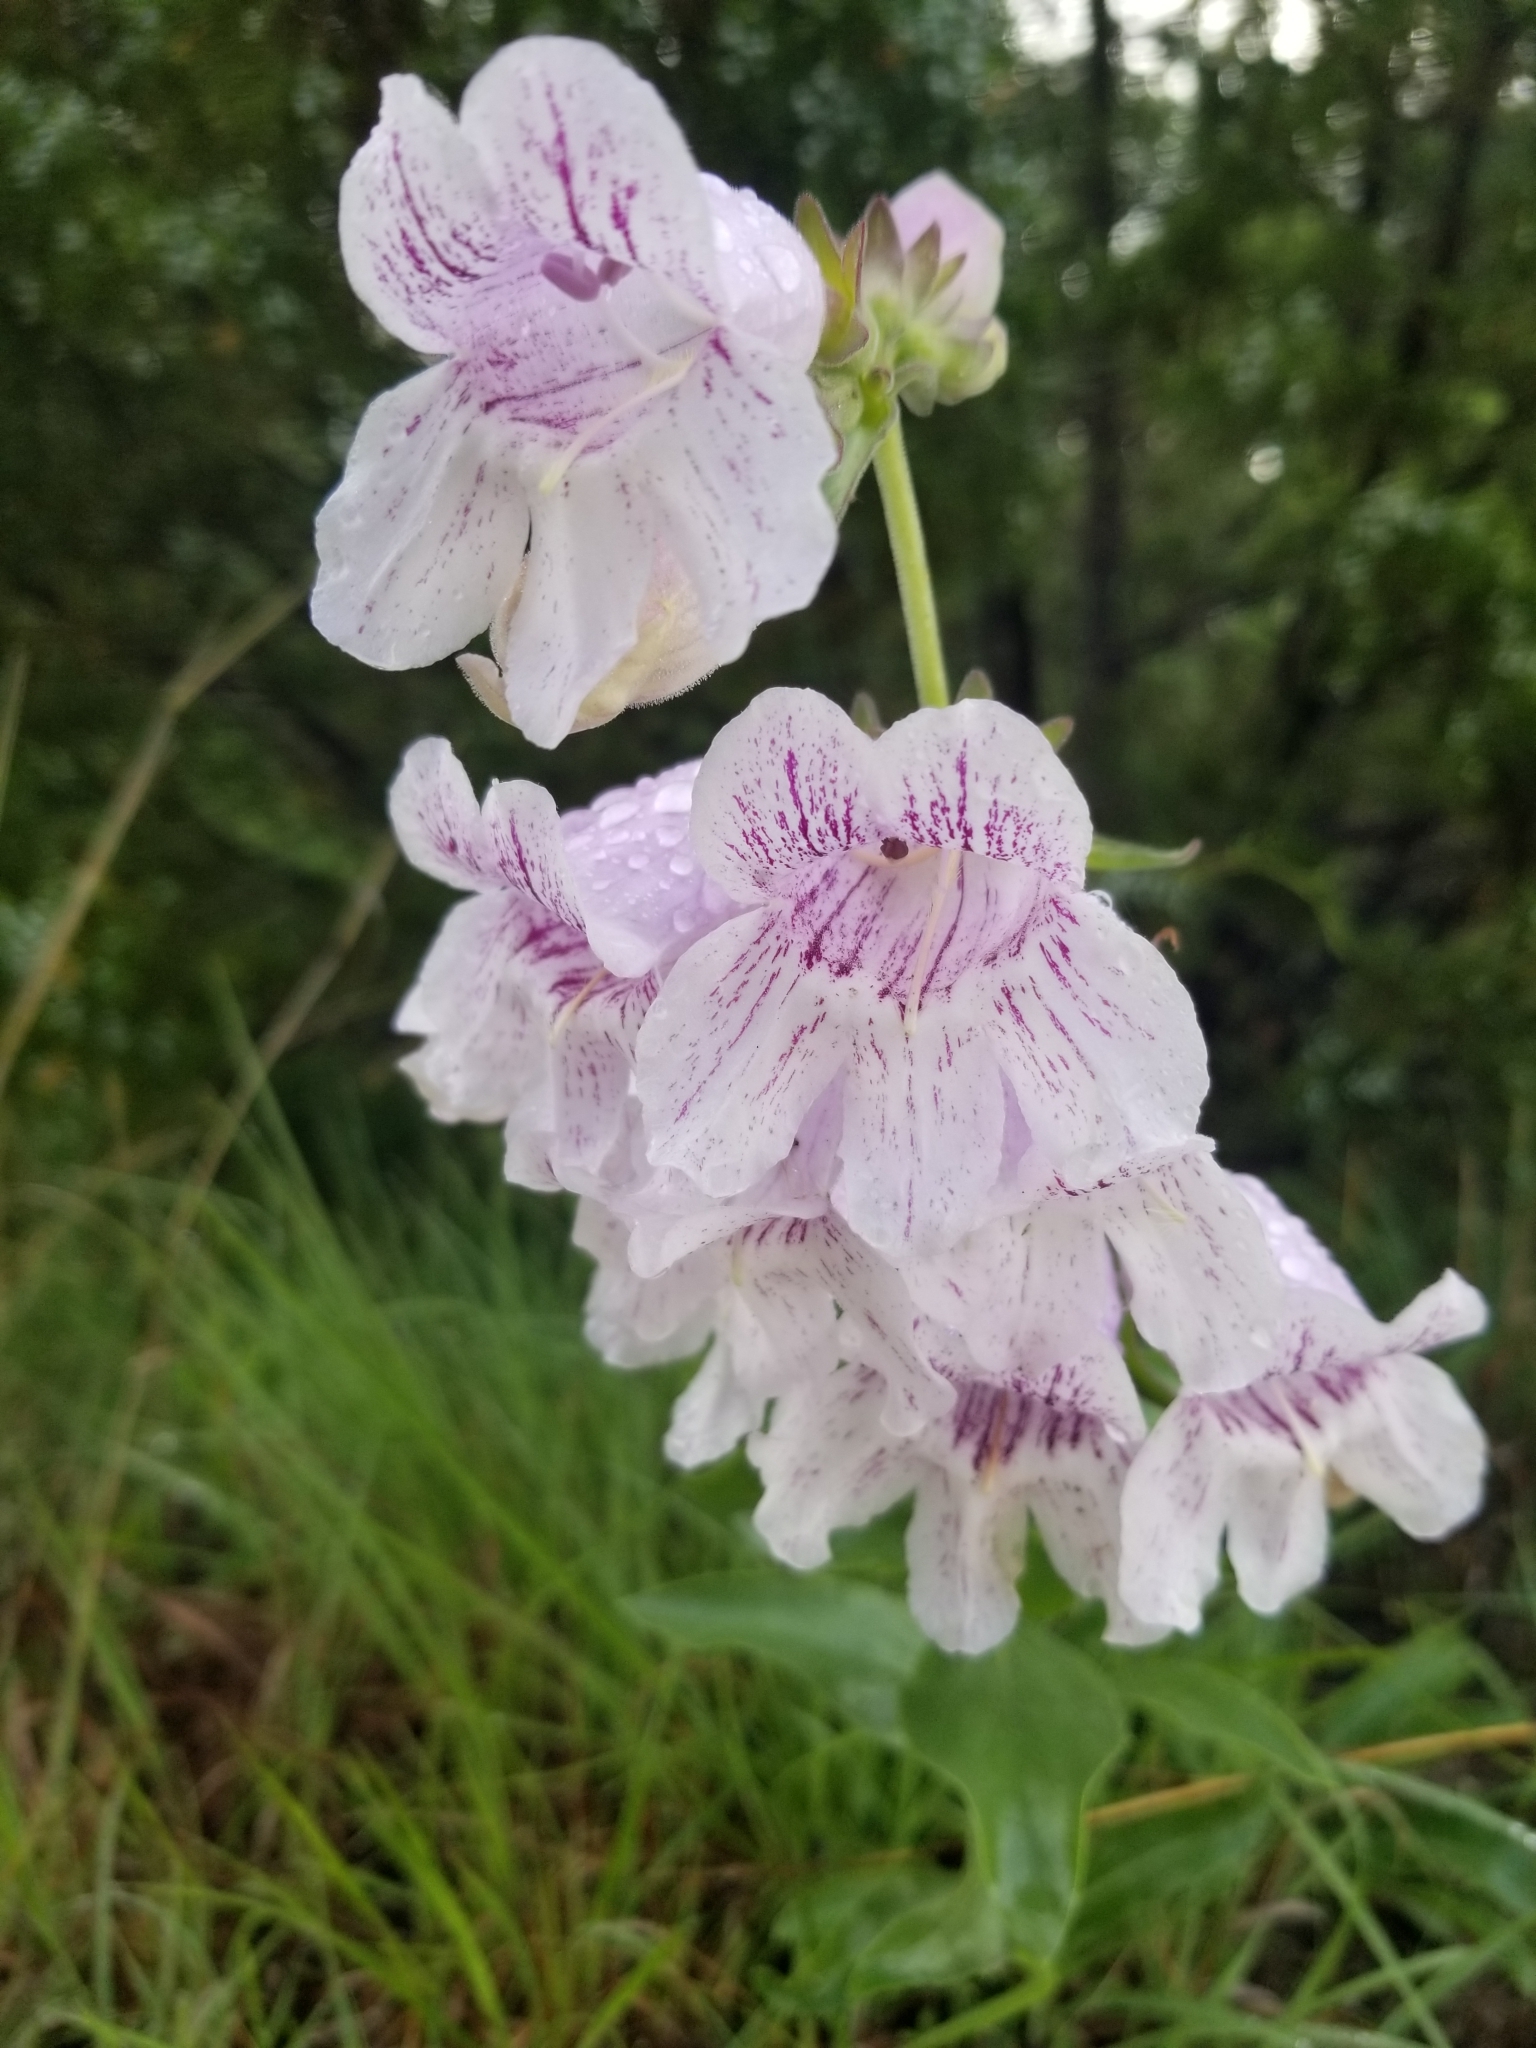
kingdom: Plantae
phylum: Tracheophyta
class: Magnoliopsida
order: Lamiales
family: Plantaginaceae
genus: Penstemon
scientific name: Penstemon cobaea
